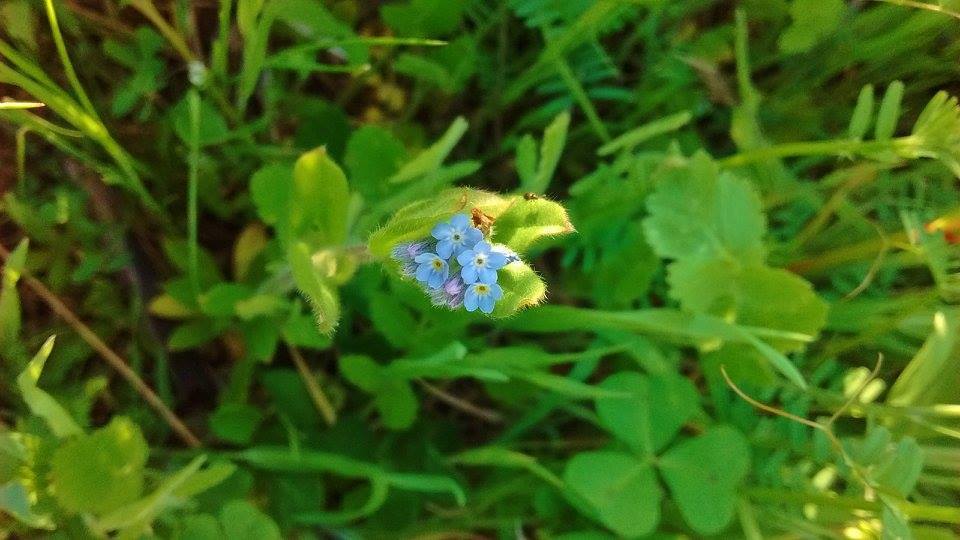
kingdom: Plantae
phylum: Tracheophyta
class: Magnoliopsida
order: Boraginales
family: Boraginaceae
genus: Myosotis
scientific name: Myosotis stricta
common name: Strict forget-me-not
